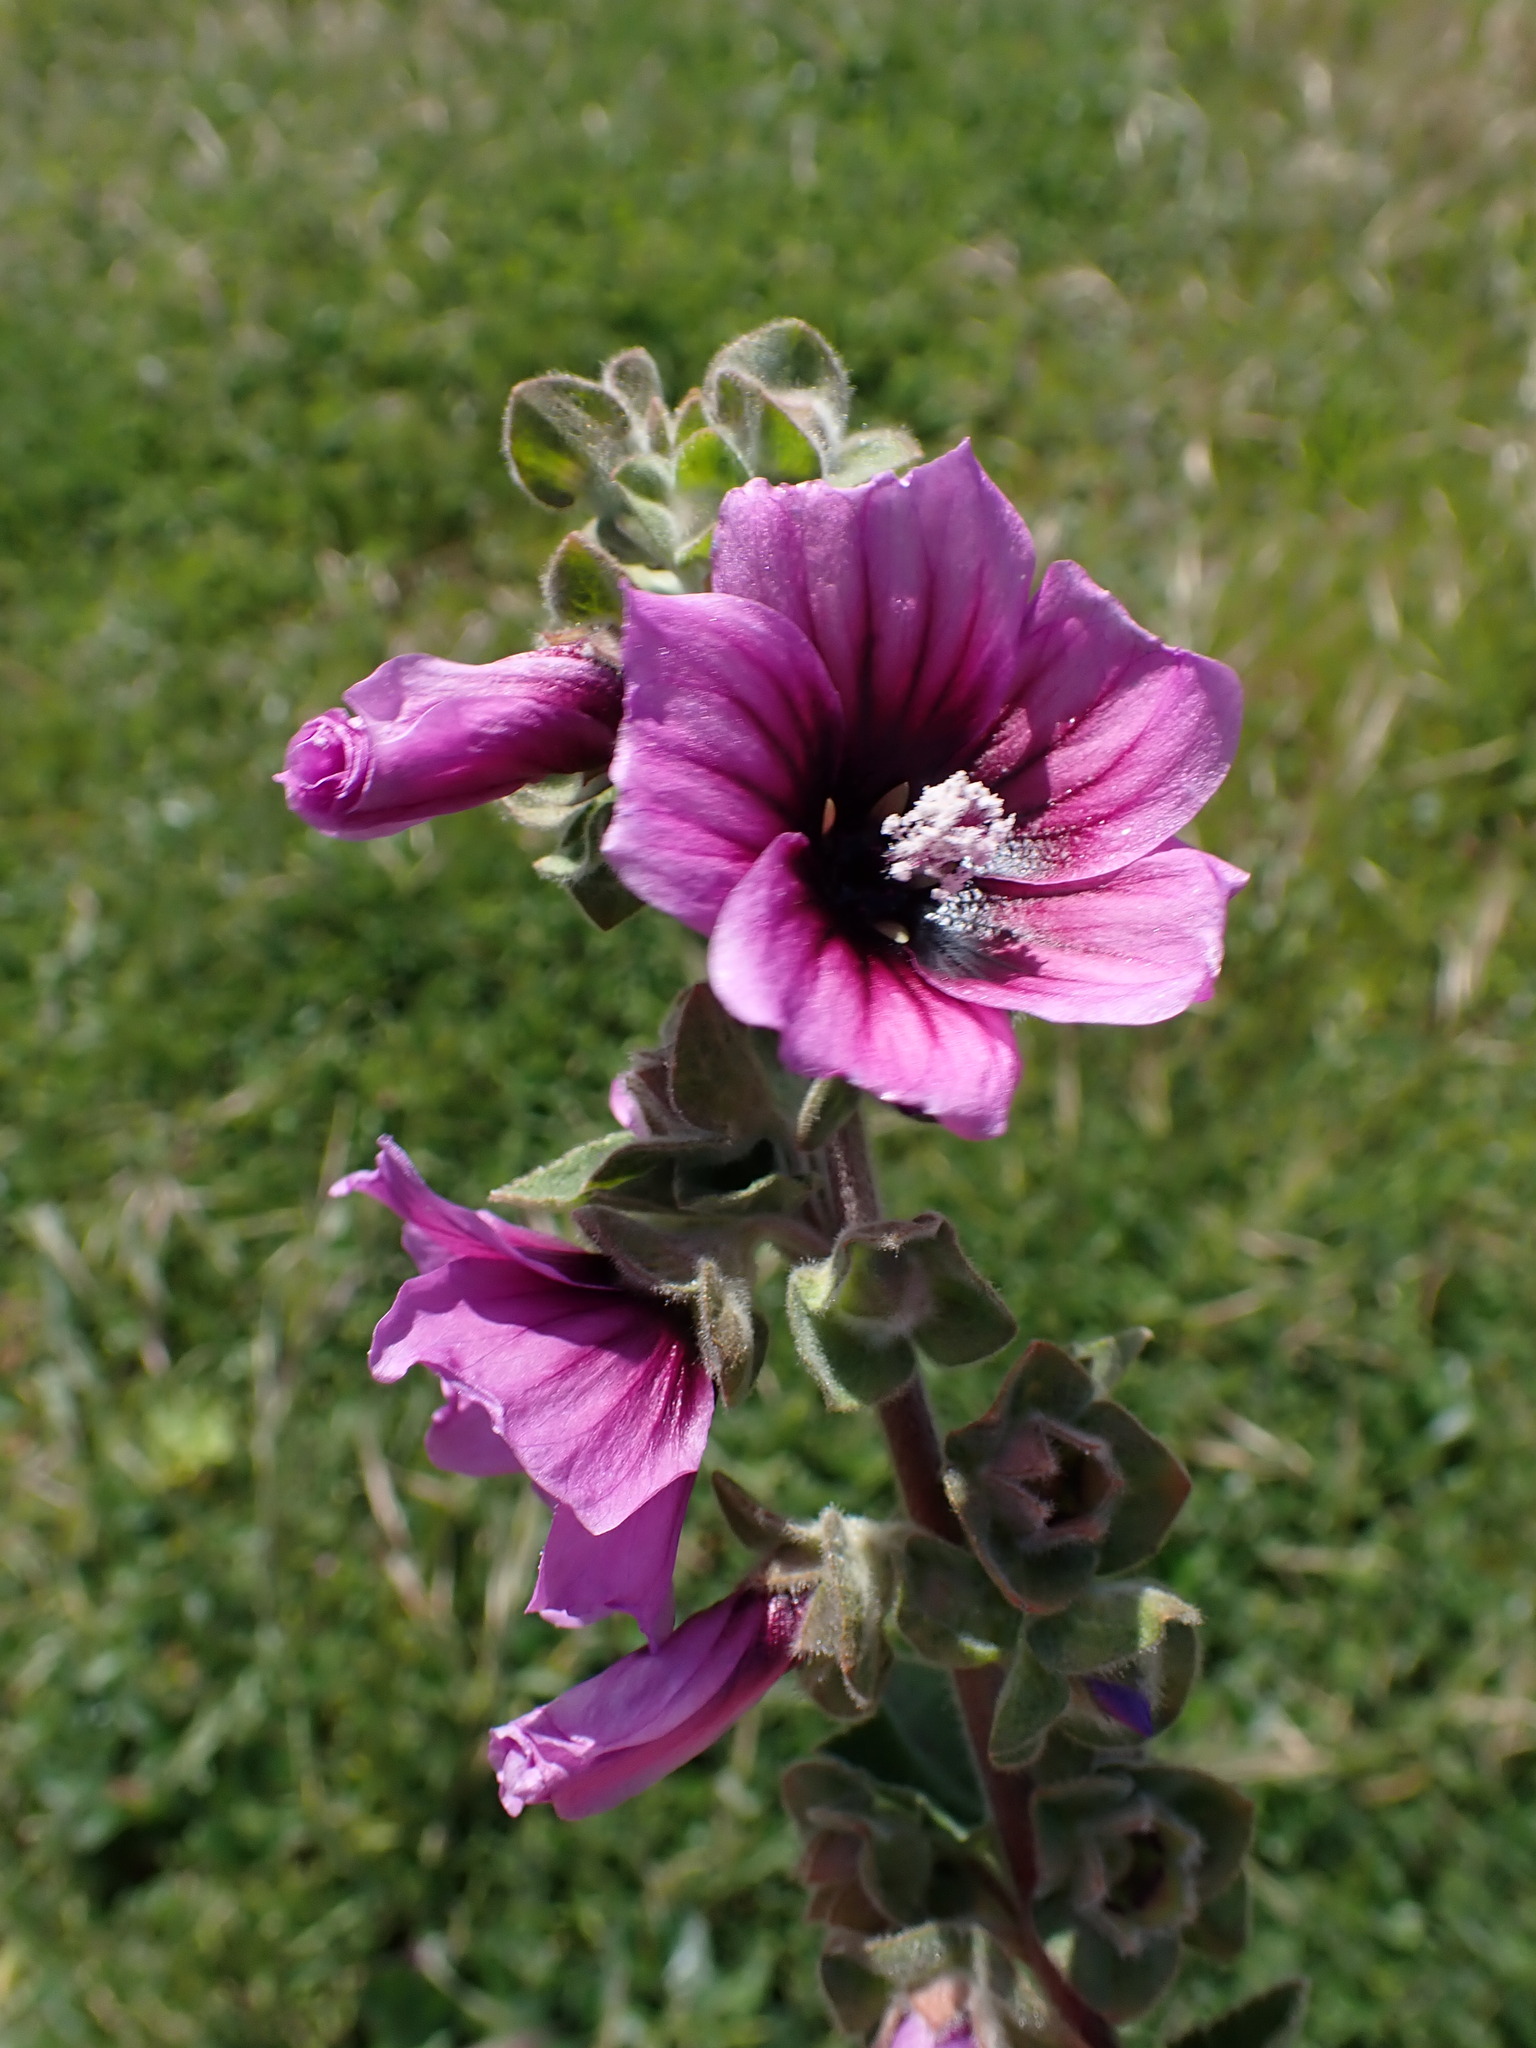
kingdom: Plantae
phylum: Tracheophyta
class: Magnoliopsida
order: Malvales
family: Malvaceae
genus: Malva
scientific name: Malva arborea
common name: Tree mallow
